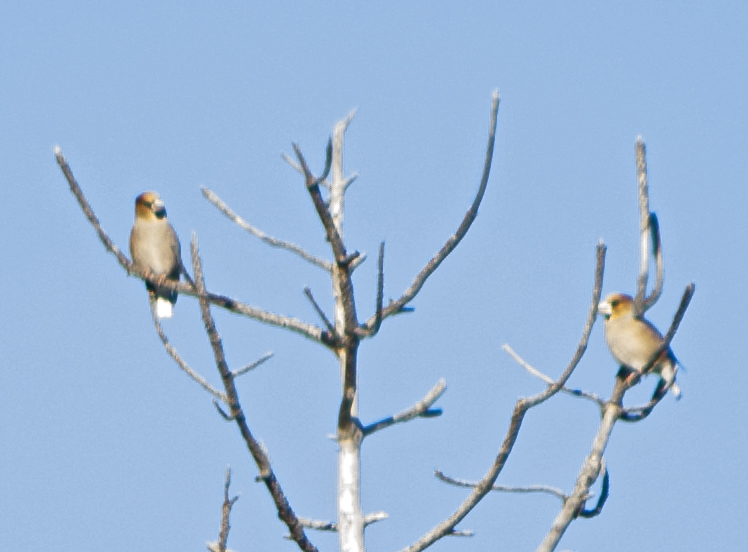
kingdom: Animalia
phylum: Chordata
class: Aves
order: Passeriformes
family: Fringillidae
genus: Coccothraustes
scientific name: Coccothraustes coccothraustes
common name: Hawfinch
